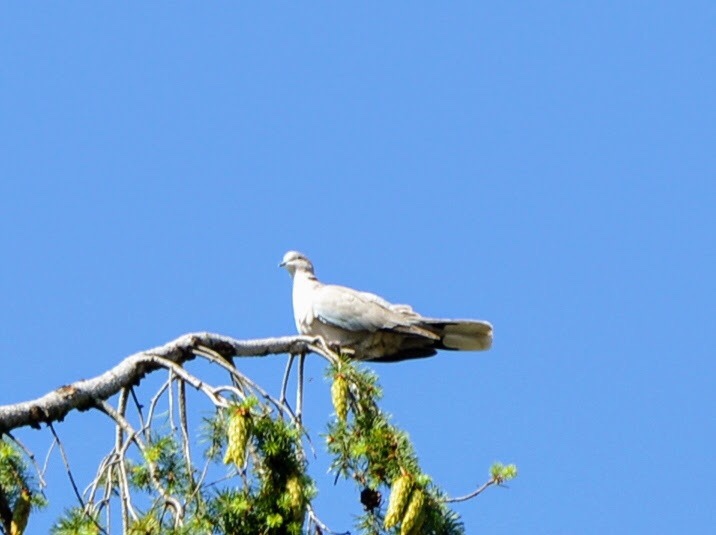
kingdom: Animalia
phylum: Chordata
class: Aves
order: Columbiformes
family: Columbidae
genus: Streptopelia
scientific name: Streptopelia decaocto
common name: Eurasian collared dove
